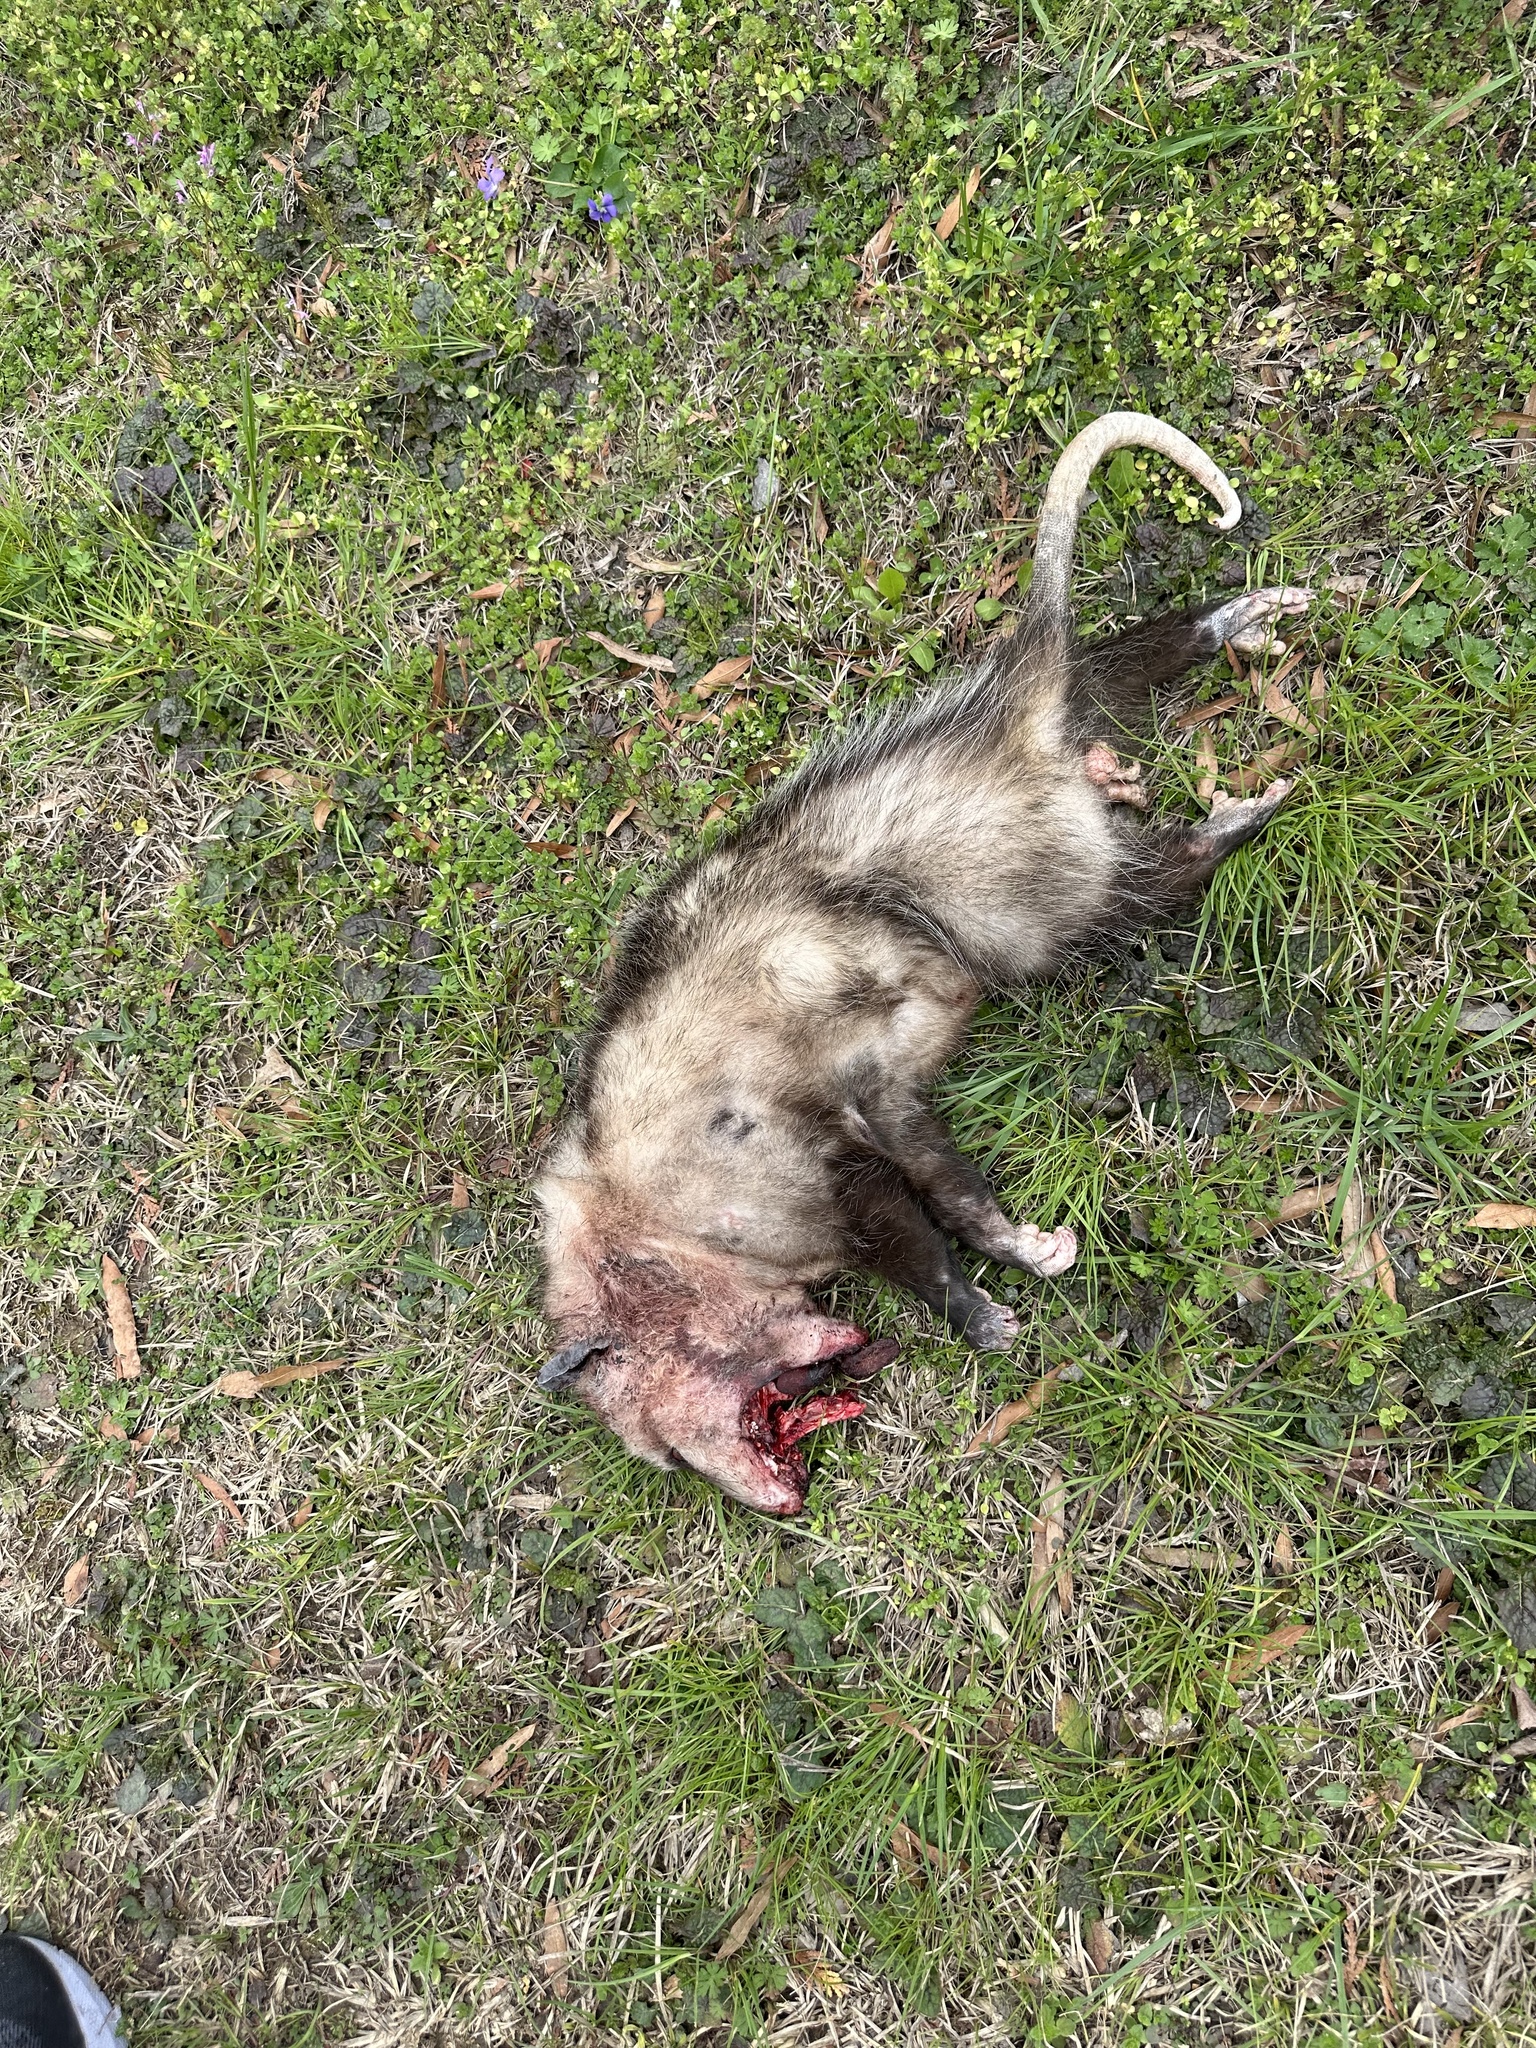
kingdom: Animalia
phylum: Chordata
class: Mammalia
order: Didelphimorphia
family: Didelphidae
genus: Didelphis
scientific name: Didelphis virginiana
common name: Virginia opossum
